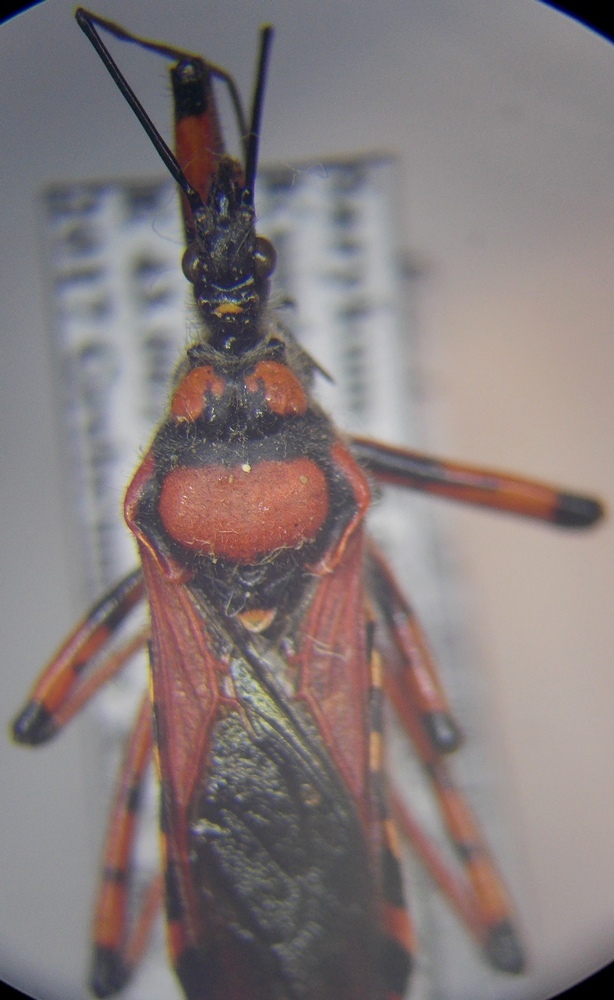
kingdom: Animalia
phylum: Arthropoda
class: Insecta
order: Hemiptera
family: Reduviidae
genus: Rhynocoris
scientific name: Rhynocoris iracundus
